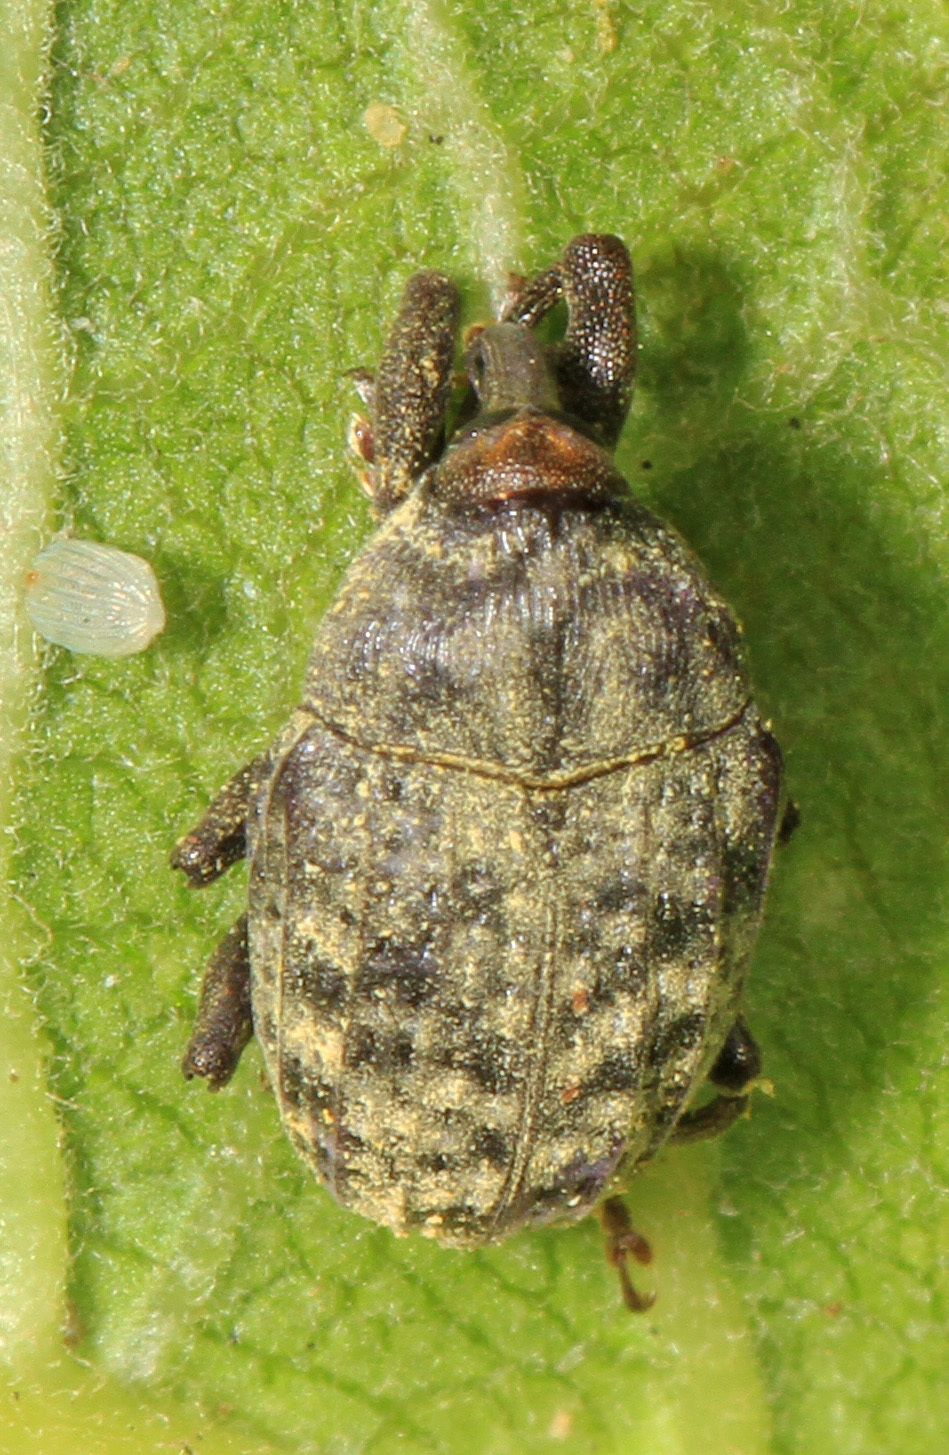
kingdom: Animalia
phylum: Arthropoda
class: Insecta
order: Coleoptera
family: Curculionidae
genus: Rhyssomatus
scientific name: Rhyssomatus lineaticollis
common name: Milkweed stem weevil
